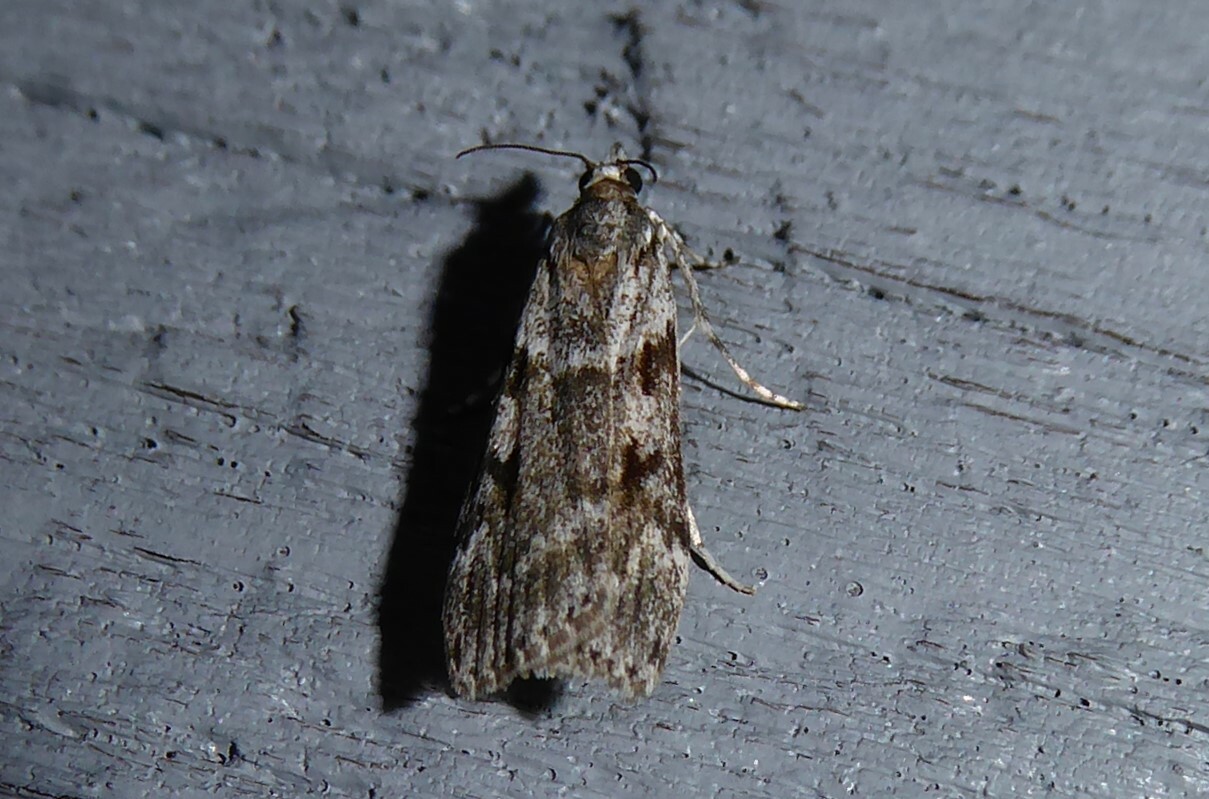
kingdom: Animalia
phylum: Arthropoda
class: Insecta
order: Lepidoptera
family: Crambidae
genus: Scoparia
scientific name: Scoparia halopis
